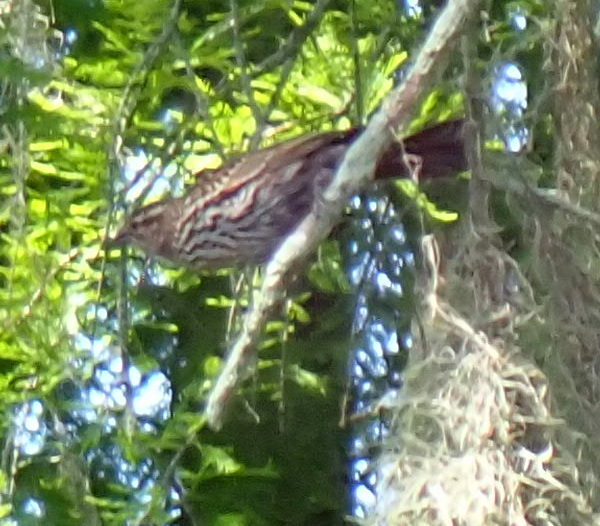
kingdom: Animalia
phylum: Chordata
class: Aves
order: Passeriformes
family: Icteridae
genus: Agelaius
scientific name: Agelaius phoeniceus
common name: Red-winged blackbird
